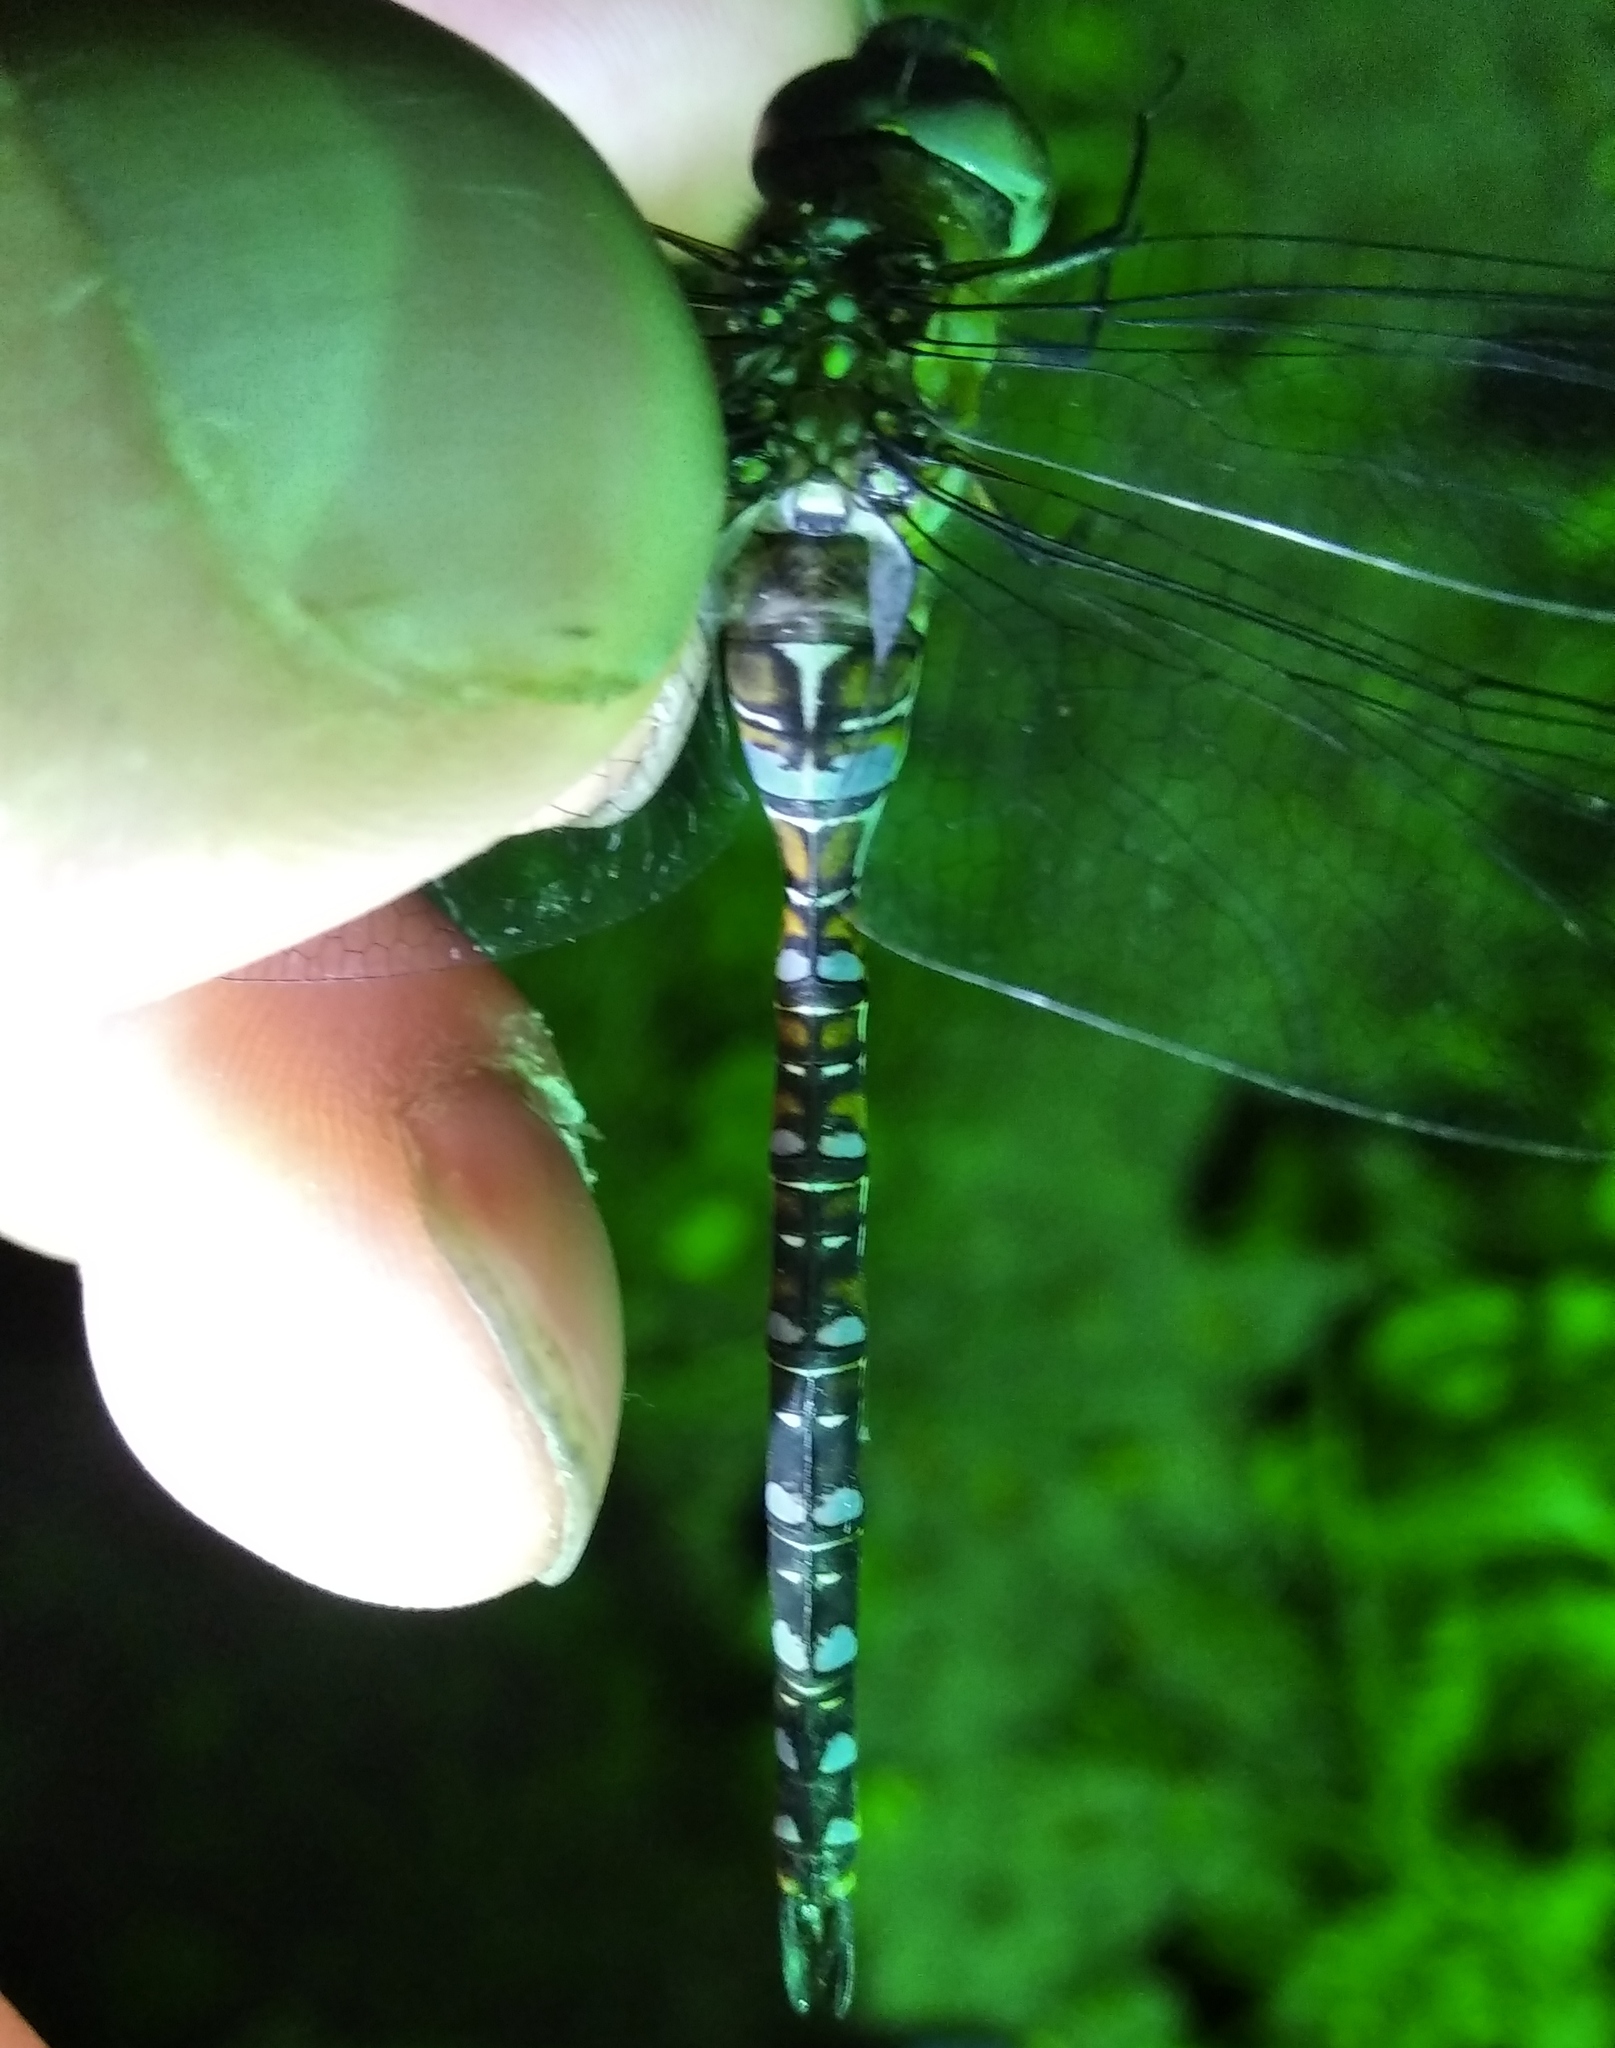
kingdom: Animalia
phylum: Arthropoda
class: Insecta
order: Odonata
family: Aeshnidae
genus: Aeshna
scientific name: Aeshna mixta
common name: Migrant hawker
